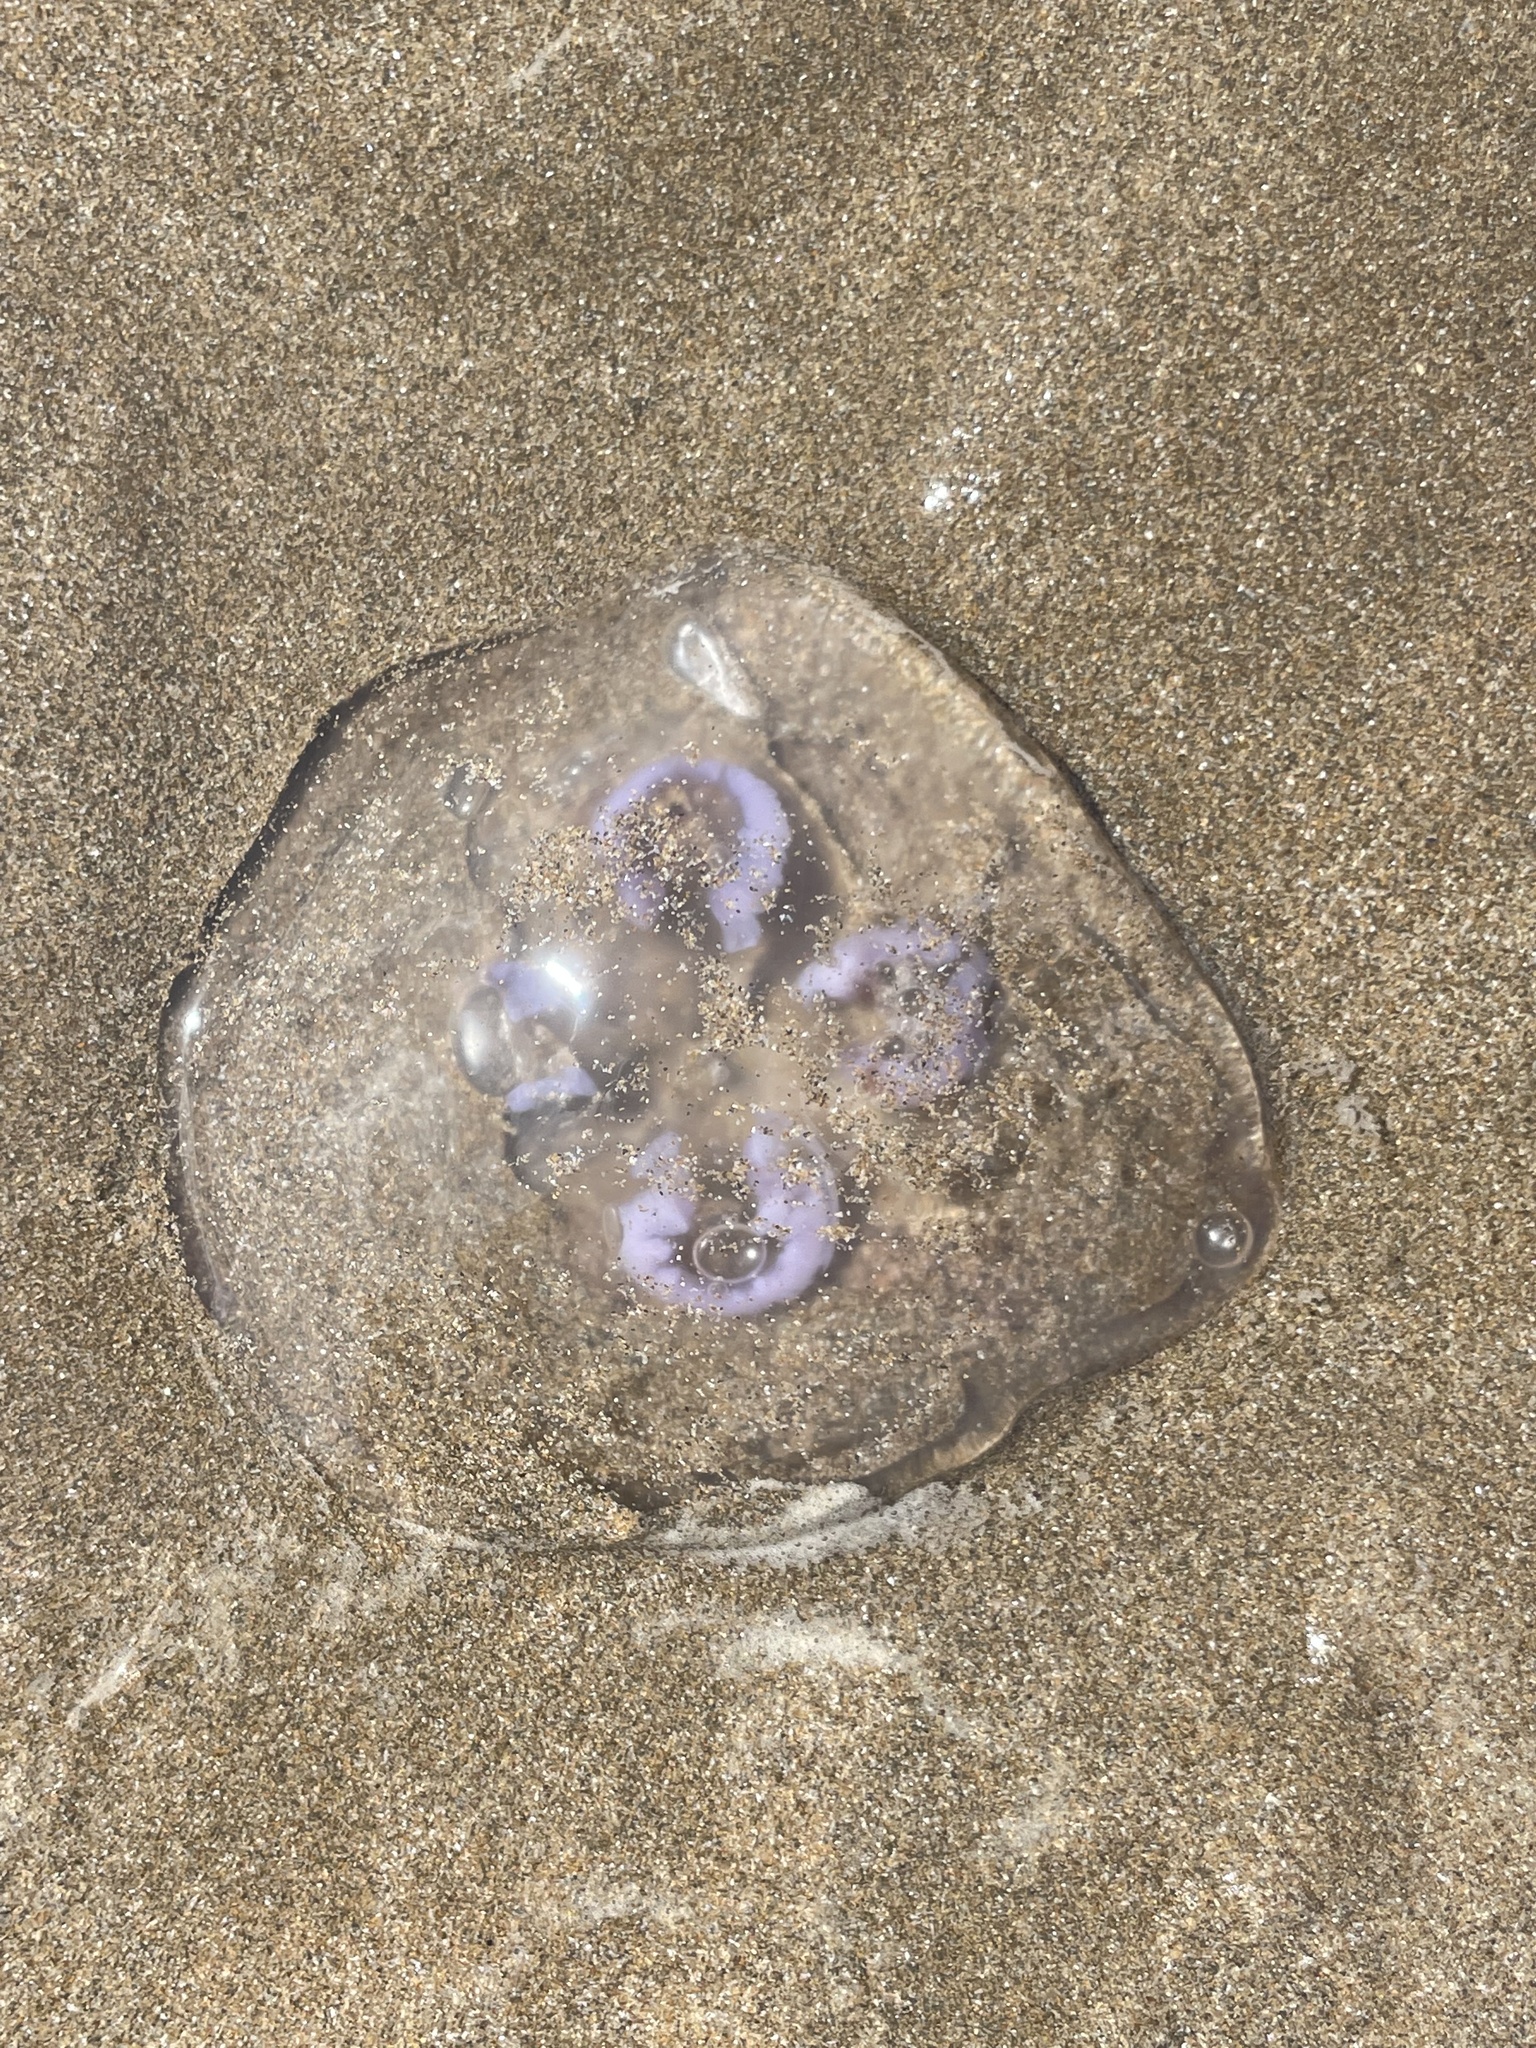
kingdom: Animalia
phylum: Cnidaria
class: Scyphozoa
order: Semaeostomeae
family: Ulmaridae
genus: Aurelia
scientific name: Aurelia aurita
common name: Moon jellyfish
